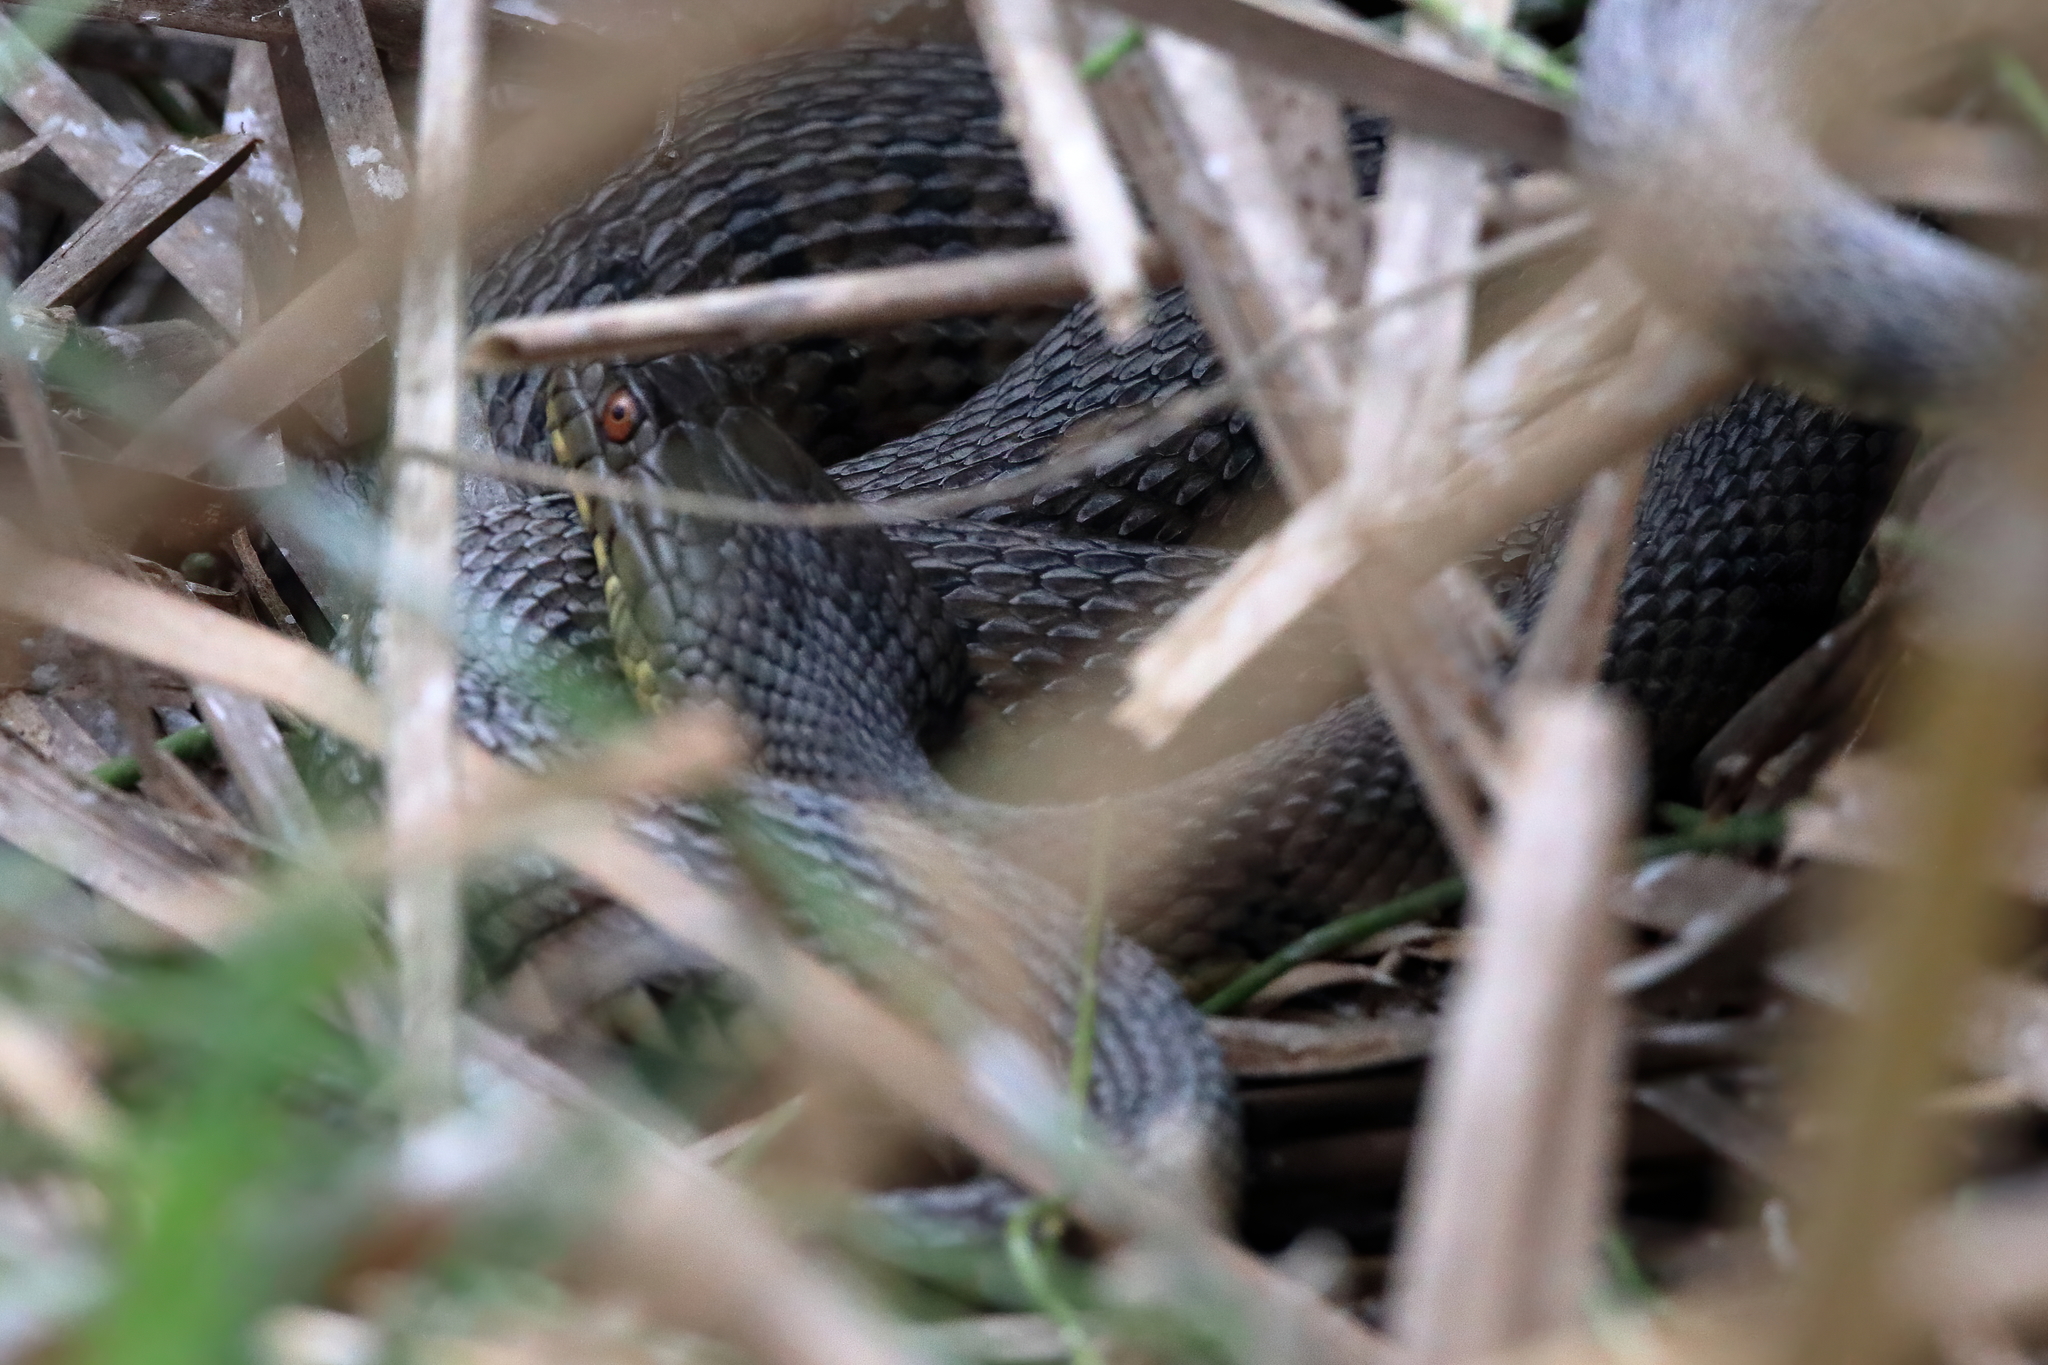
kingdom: Animalia
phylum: Chordata
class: Squamata
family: Colubridae
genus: Nerodia
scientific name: Nerodia rhombifer
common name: Diamondback water snake
